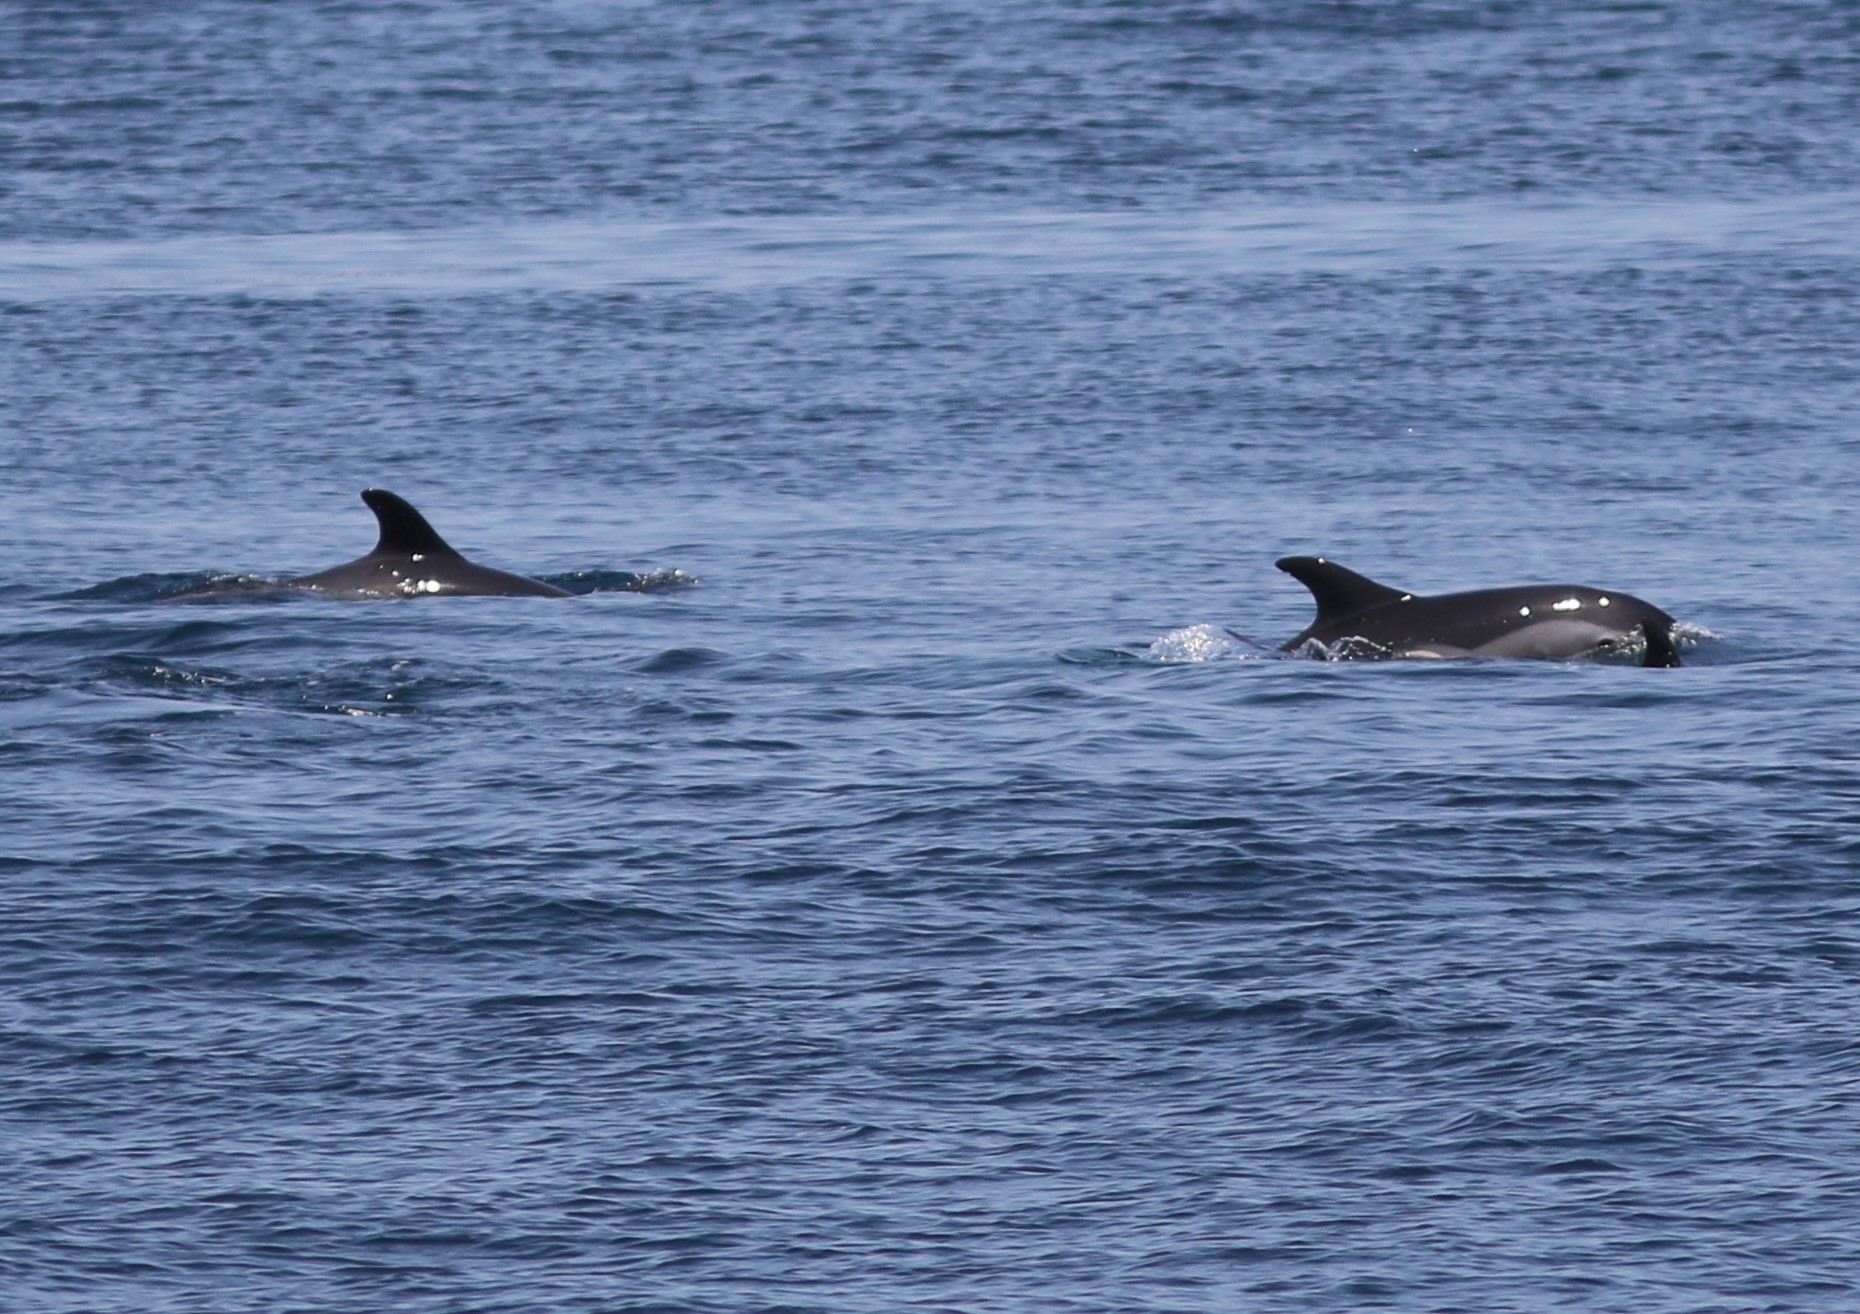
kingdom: Animalia
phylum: Chordata
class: Mammalia
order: Cetacea
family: Delphinidae
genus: Lagenorhynchus
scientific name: Lagenorhynchus acutus
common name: Atlantic white-sided dolphin
